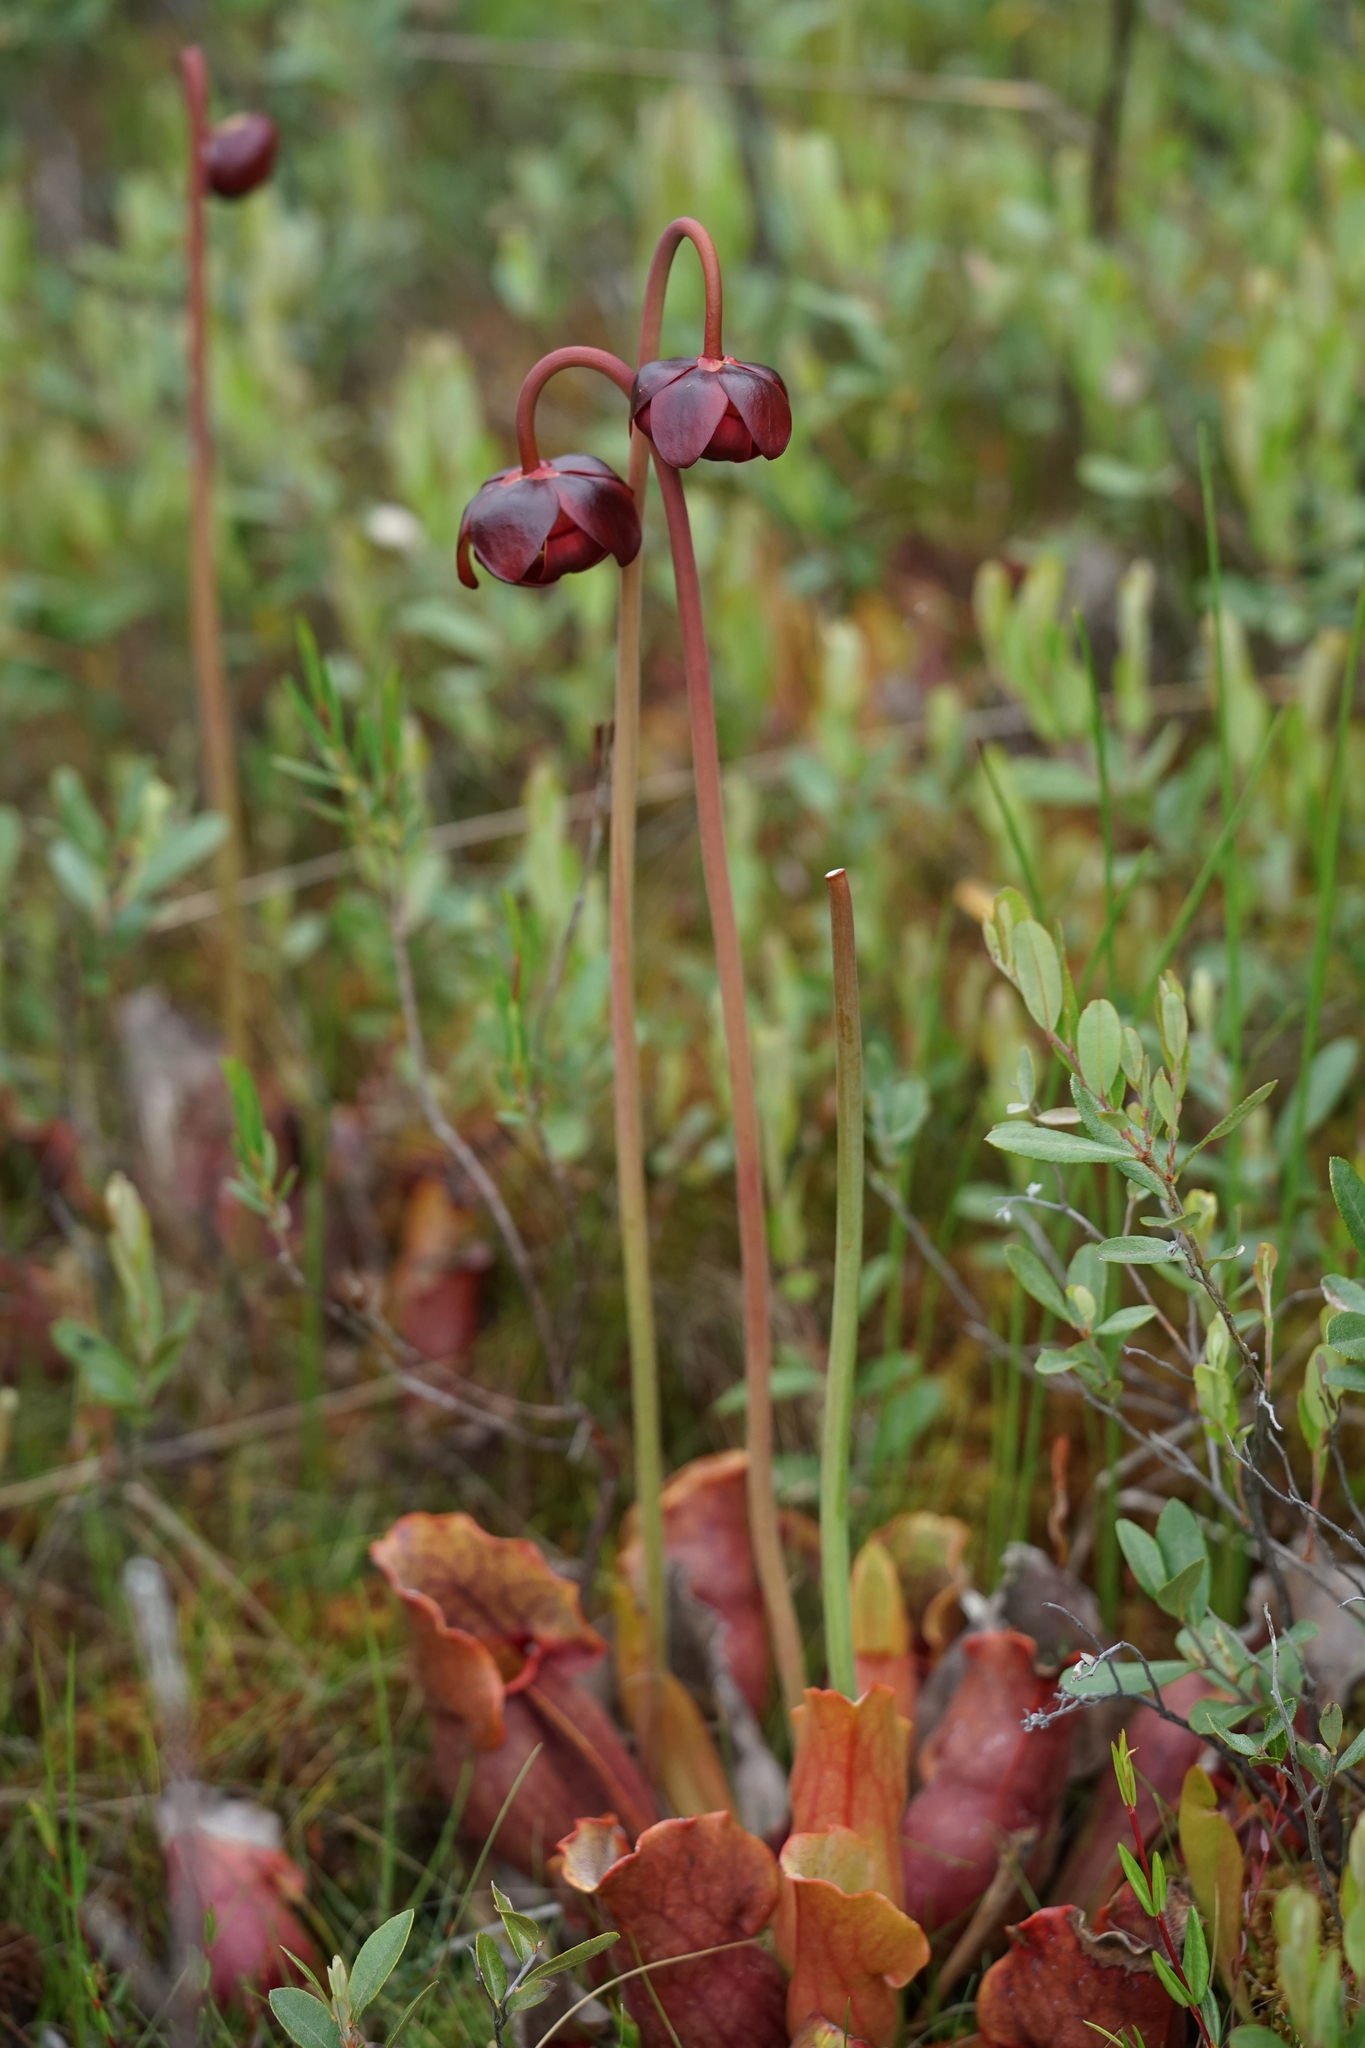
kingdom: Plantae
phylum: Tracheophyta
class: Magnoliopsida
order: Ericales
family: Sarraceniaceae
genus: Sarracenia
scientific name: Sarracenia purpurea
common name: Pitcherplant
